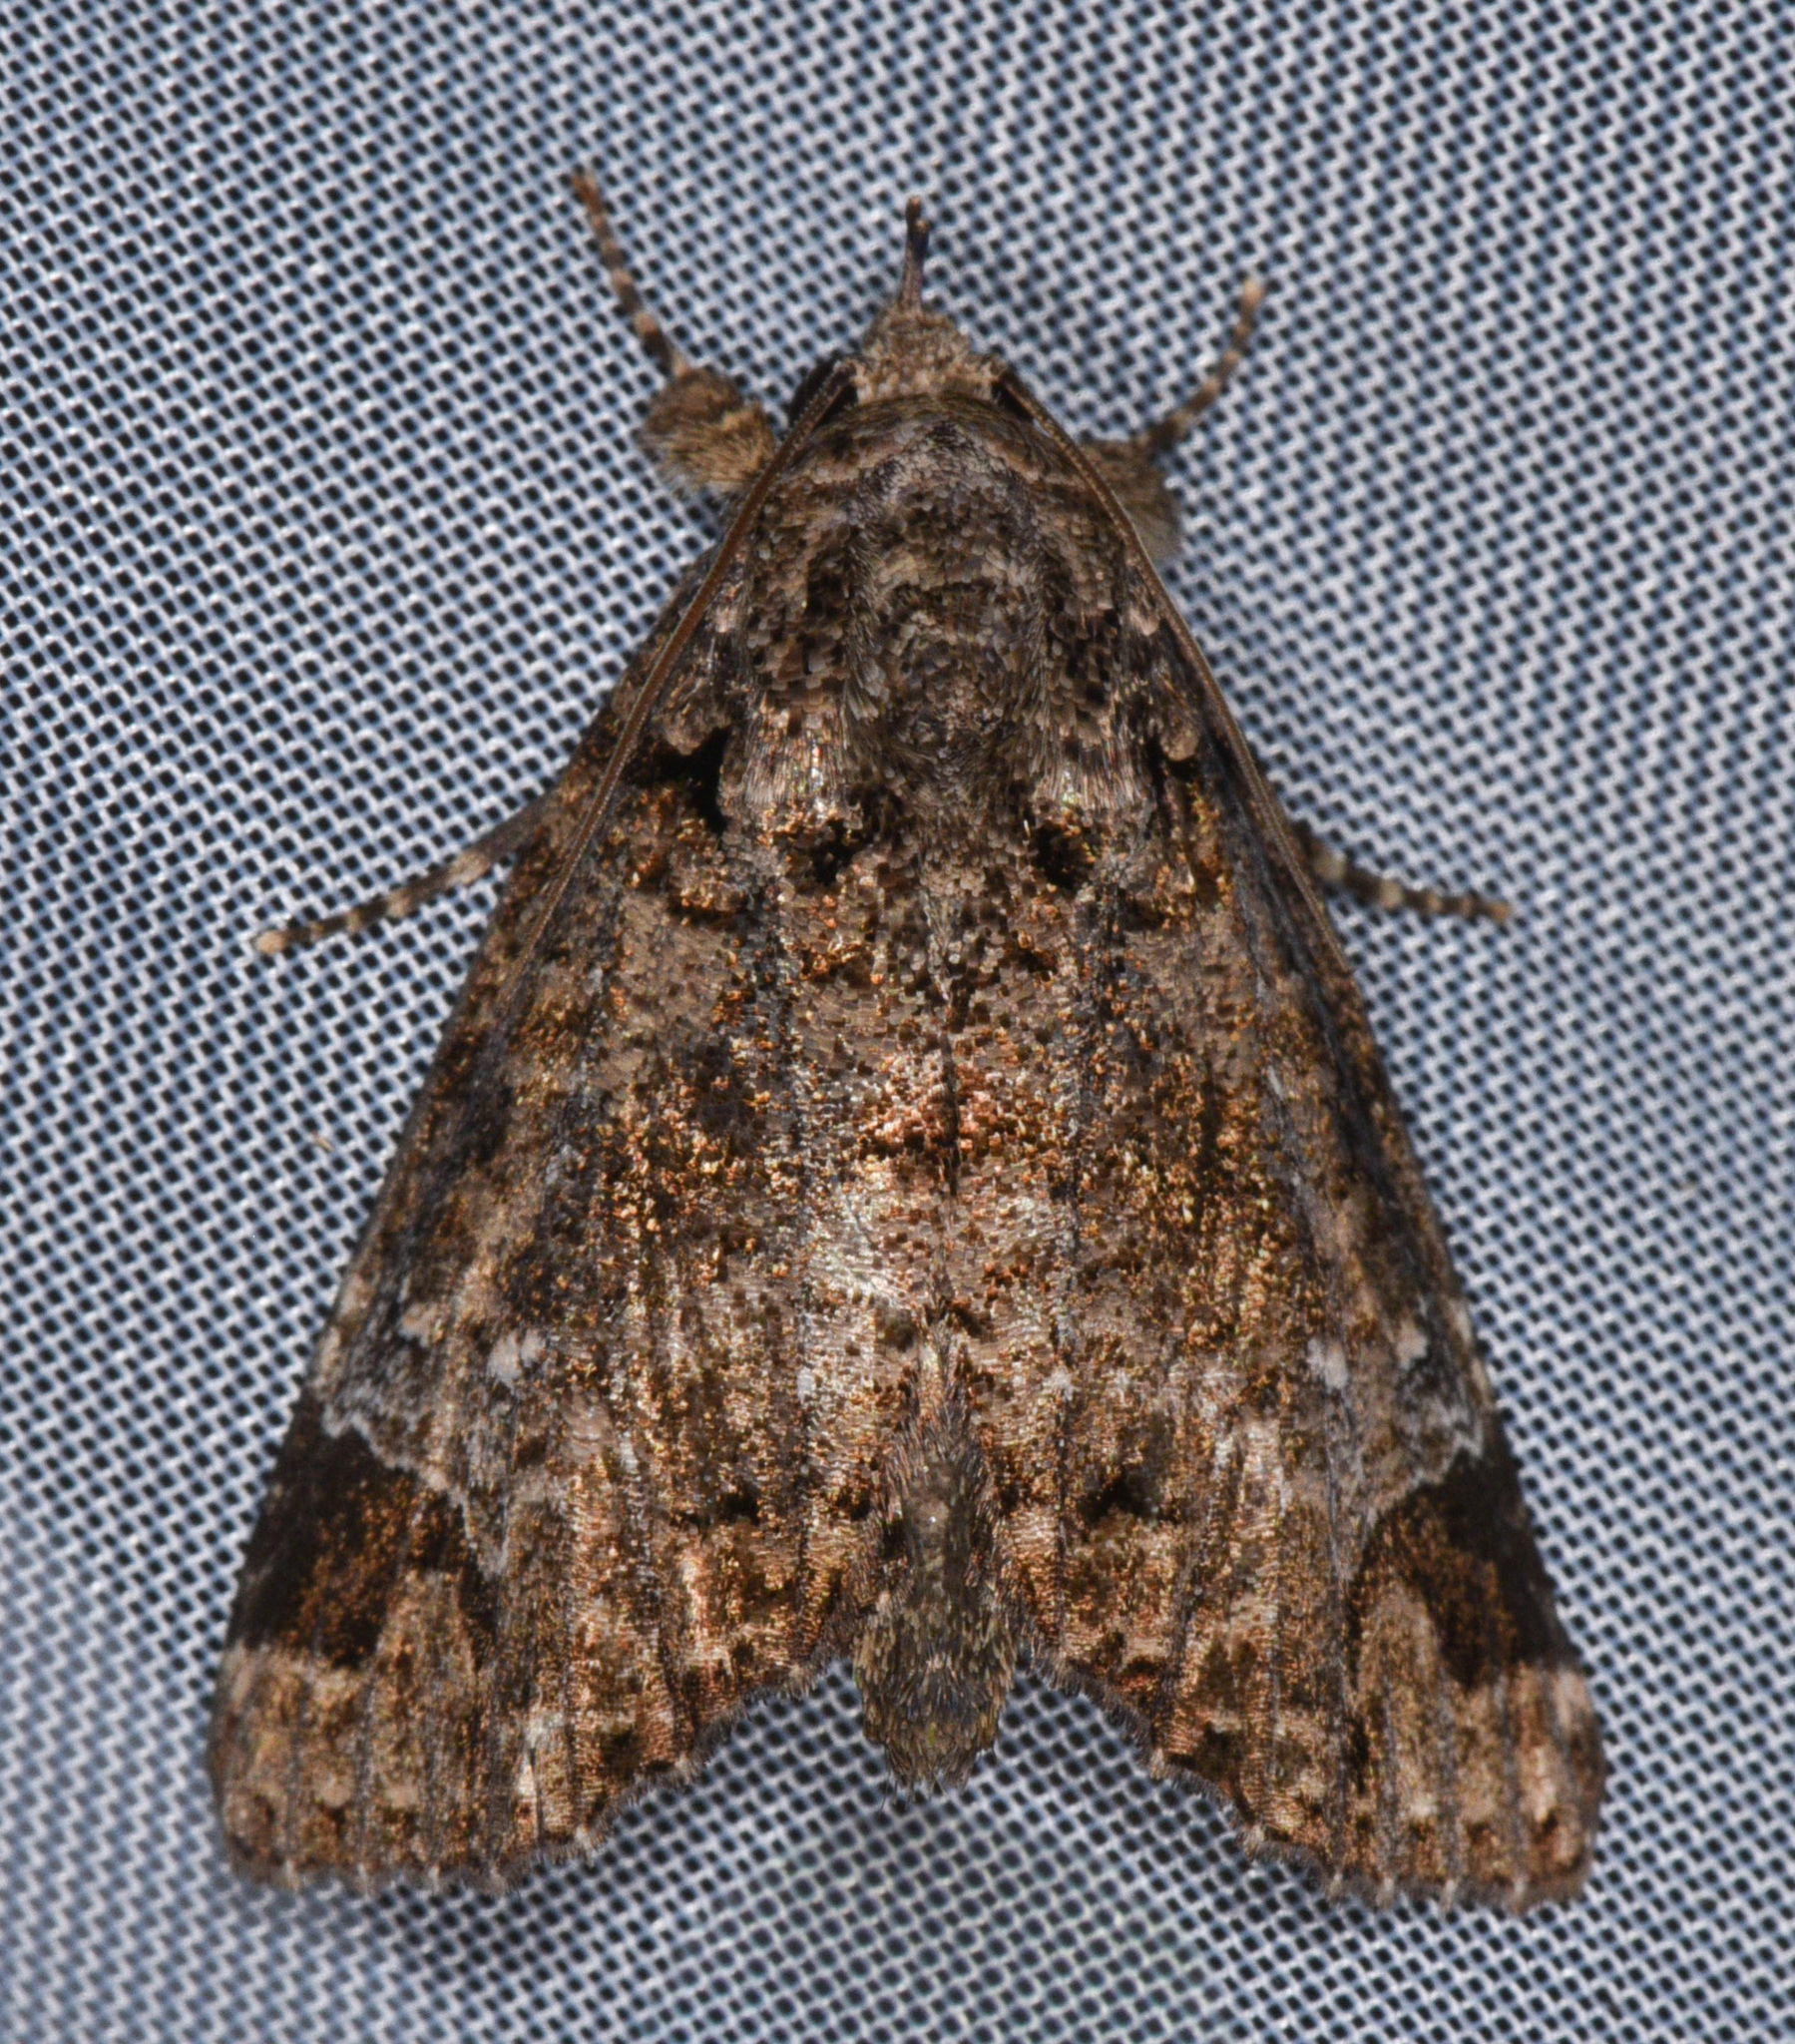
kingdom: Animalia
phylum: Arthropoda
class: Insecta
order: Lepidoptera
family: Erebidae
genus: Encruphion
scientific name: Encruphion leena
